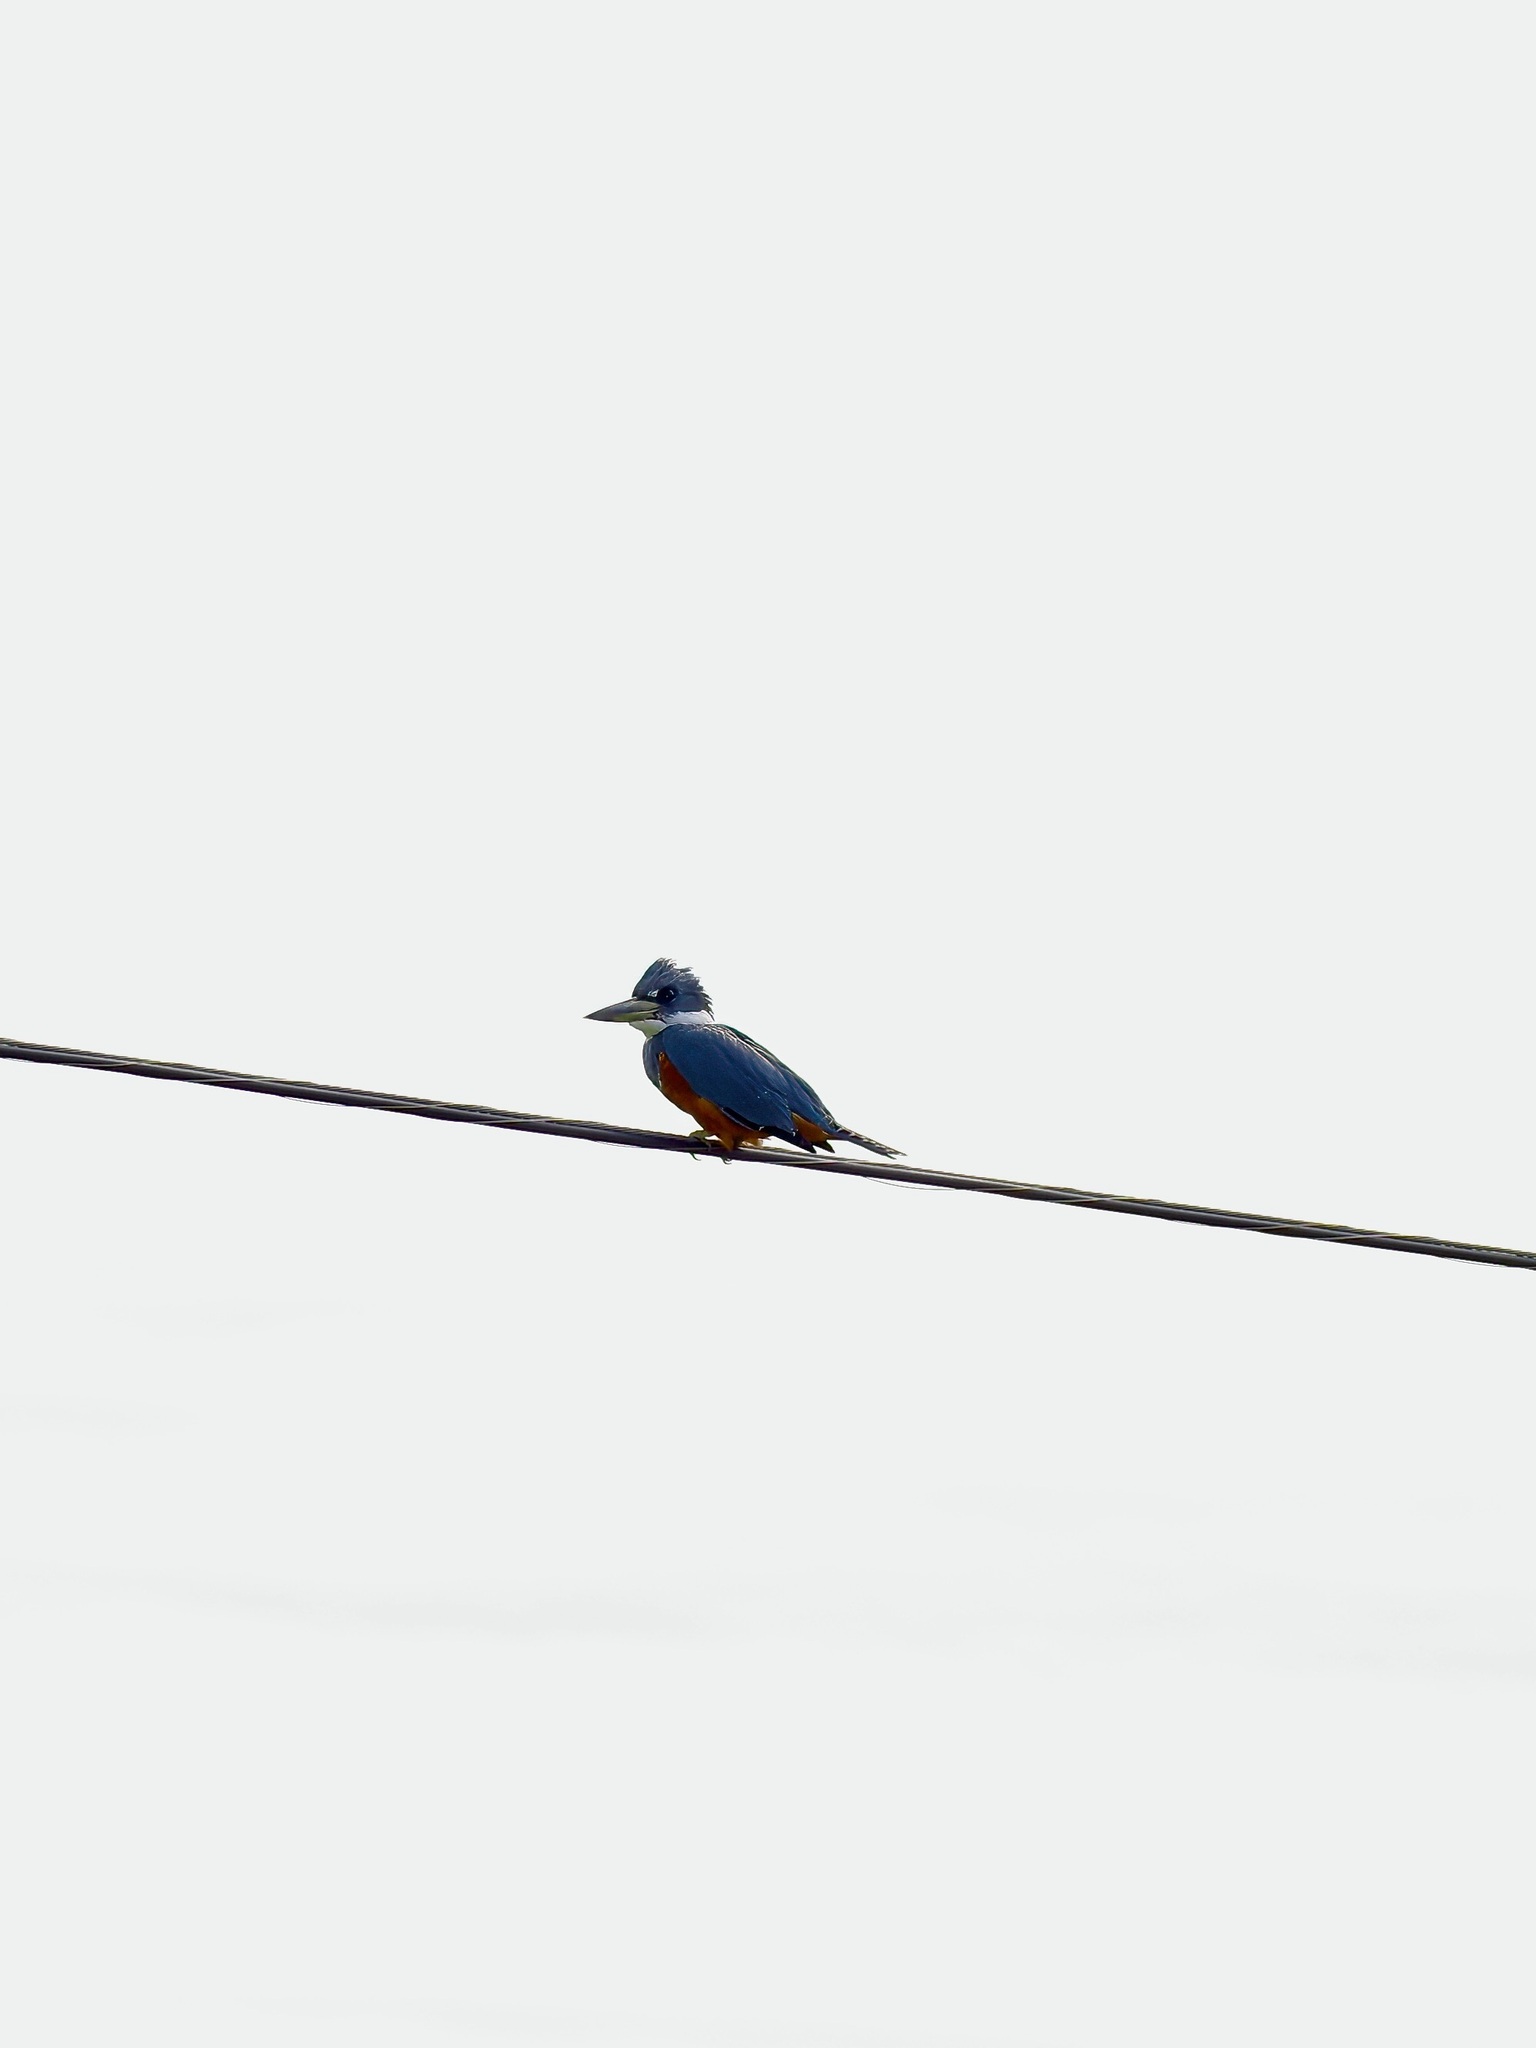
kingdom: Animalia
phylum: Chordata
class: Aves
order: Coraciiformes
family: Alcedinidae
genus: Megaceryle
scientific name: Megaceryle torquata
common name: Ringed kingfisher
